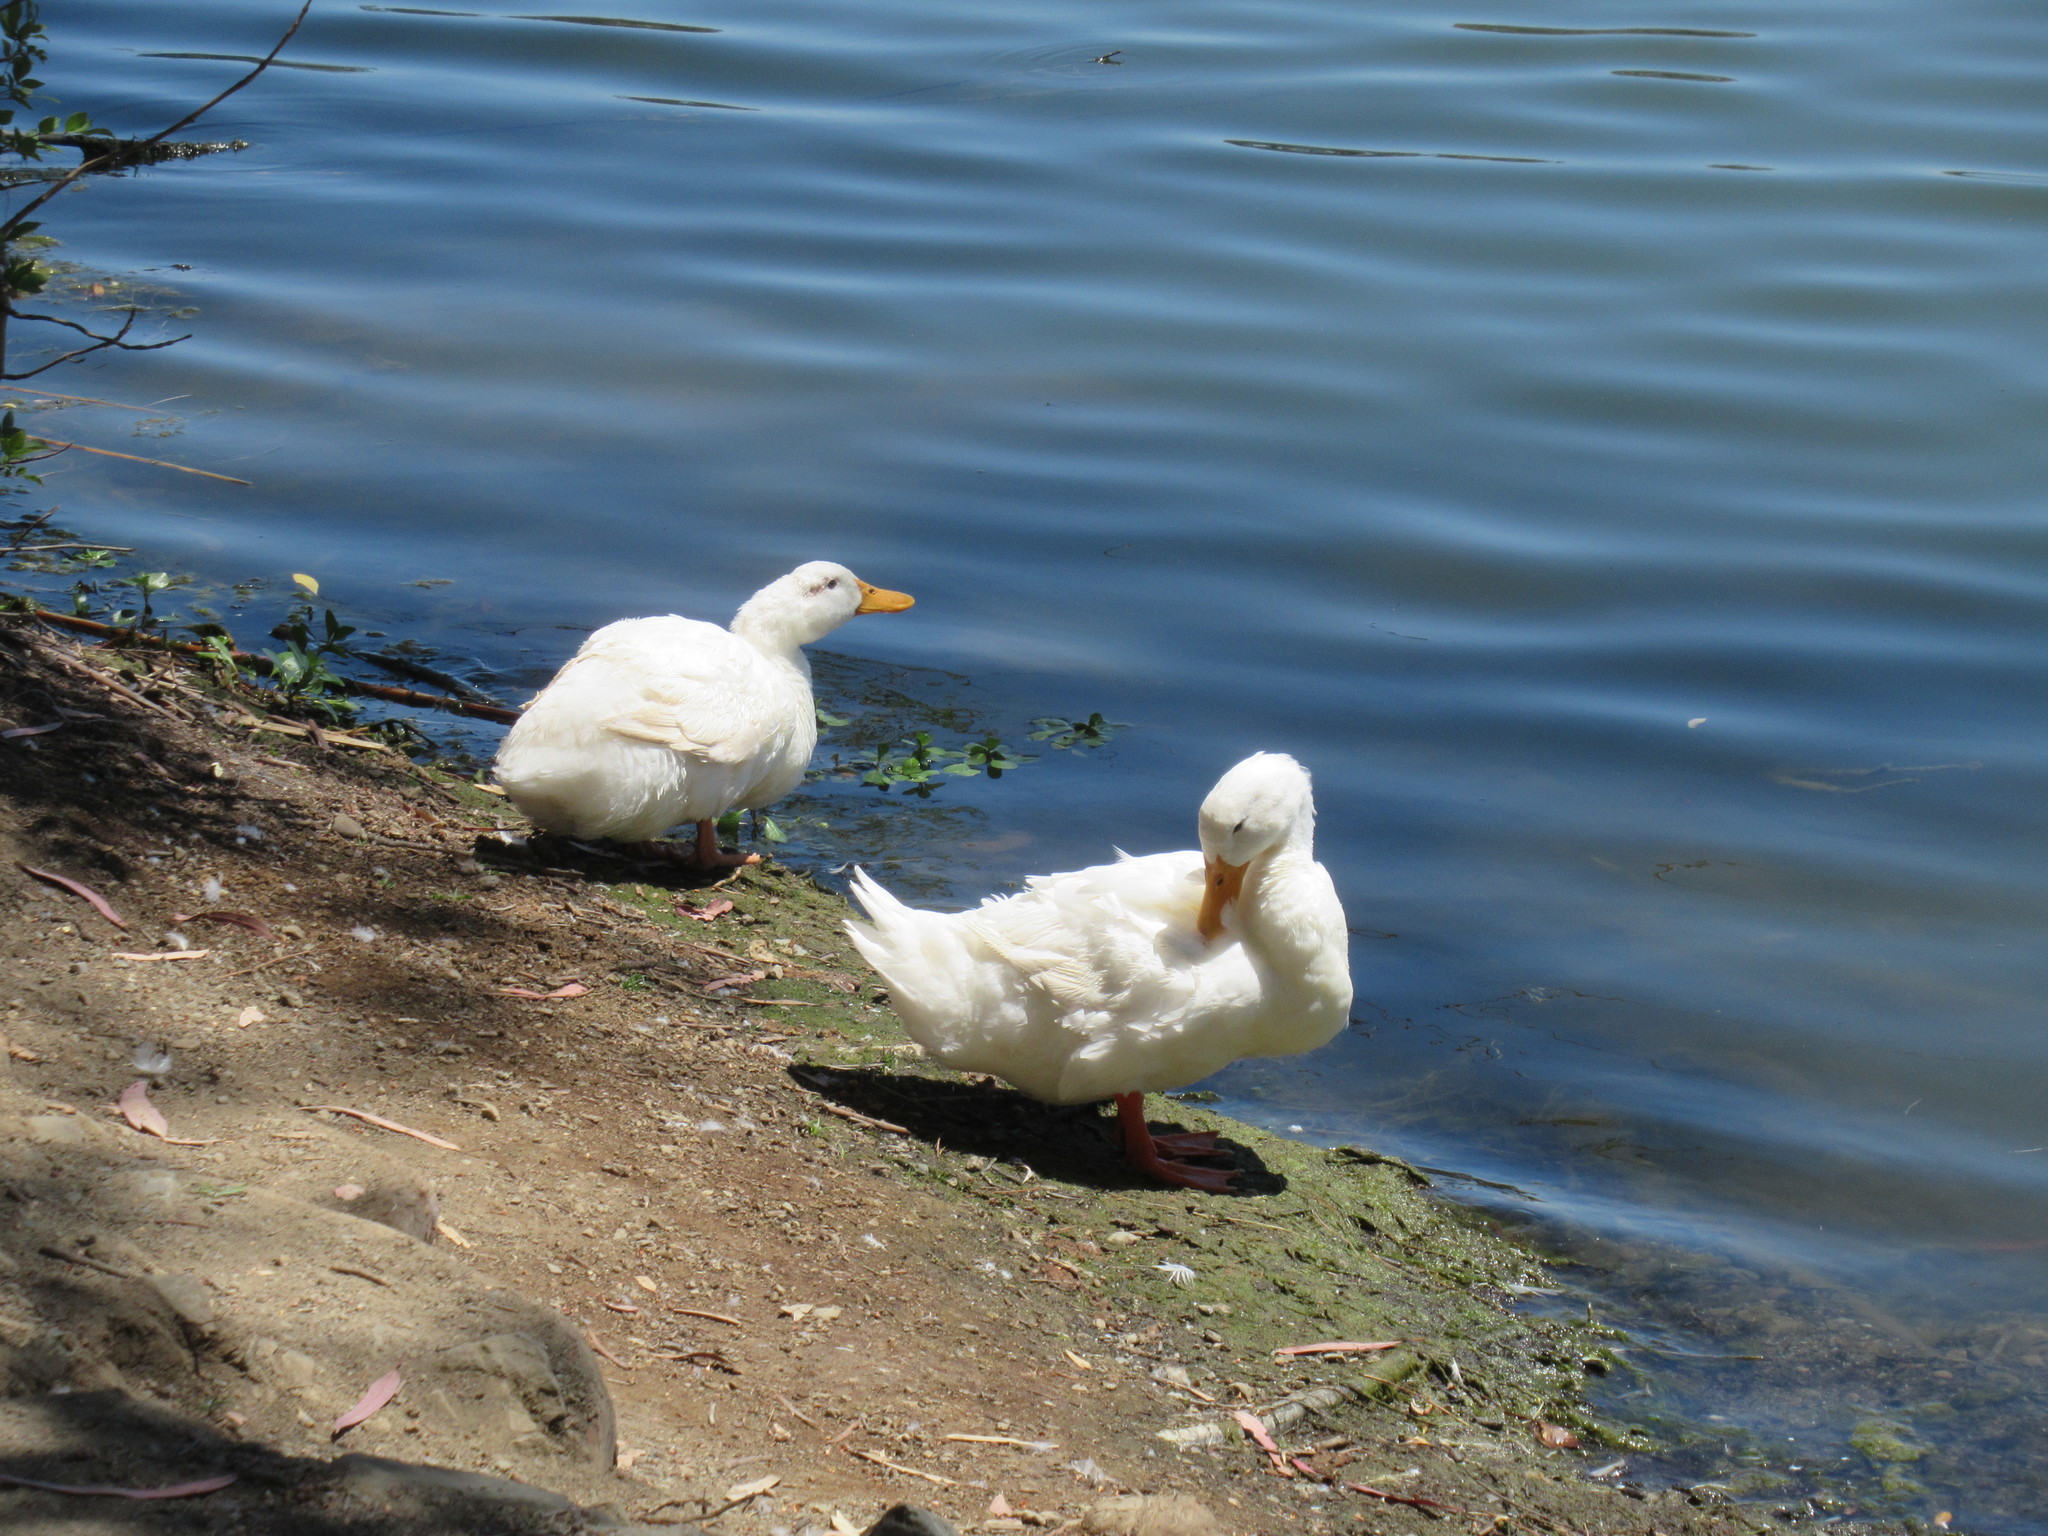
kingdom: Animalia
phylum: Chordata
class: Aves
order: Anseriformes
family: Anatidae
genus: Anas
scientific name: Anas platyrhynchos
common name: Mallard
